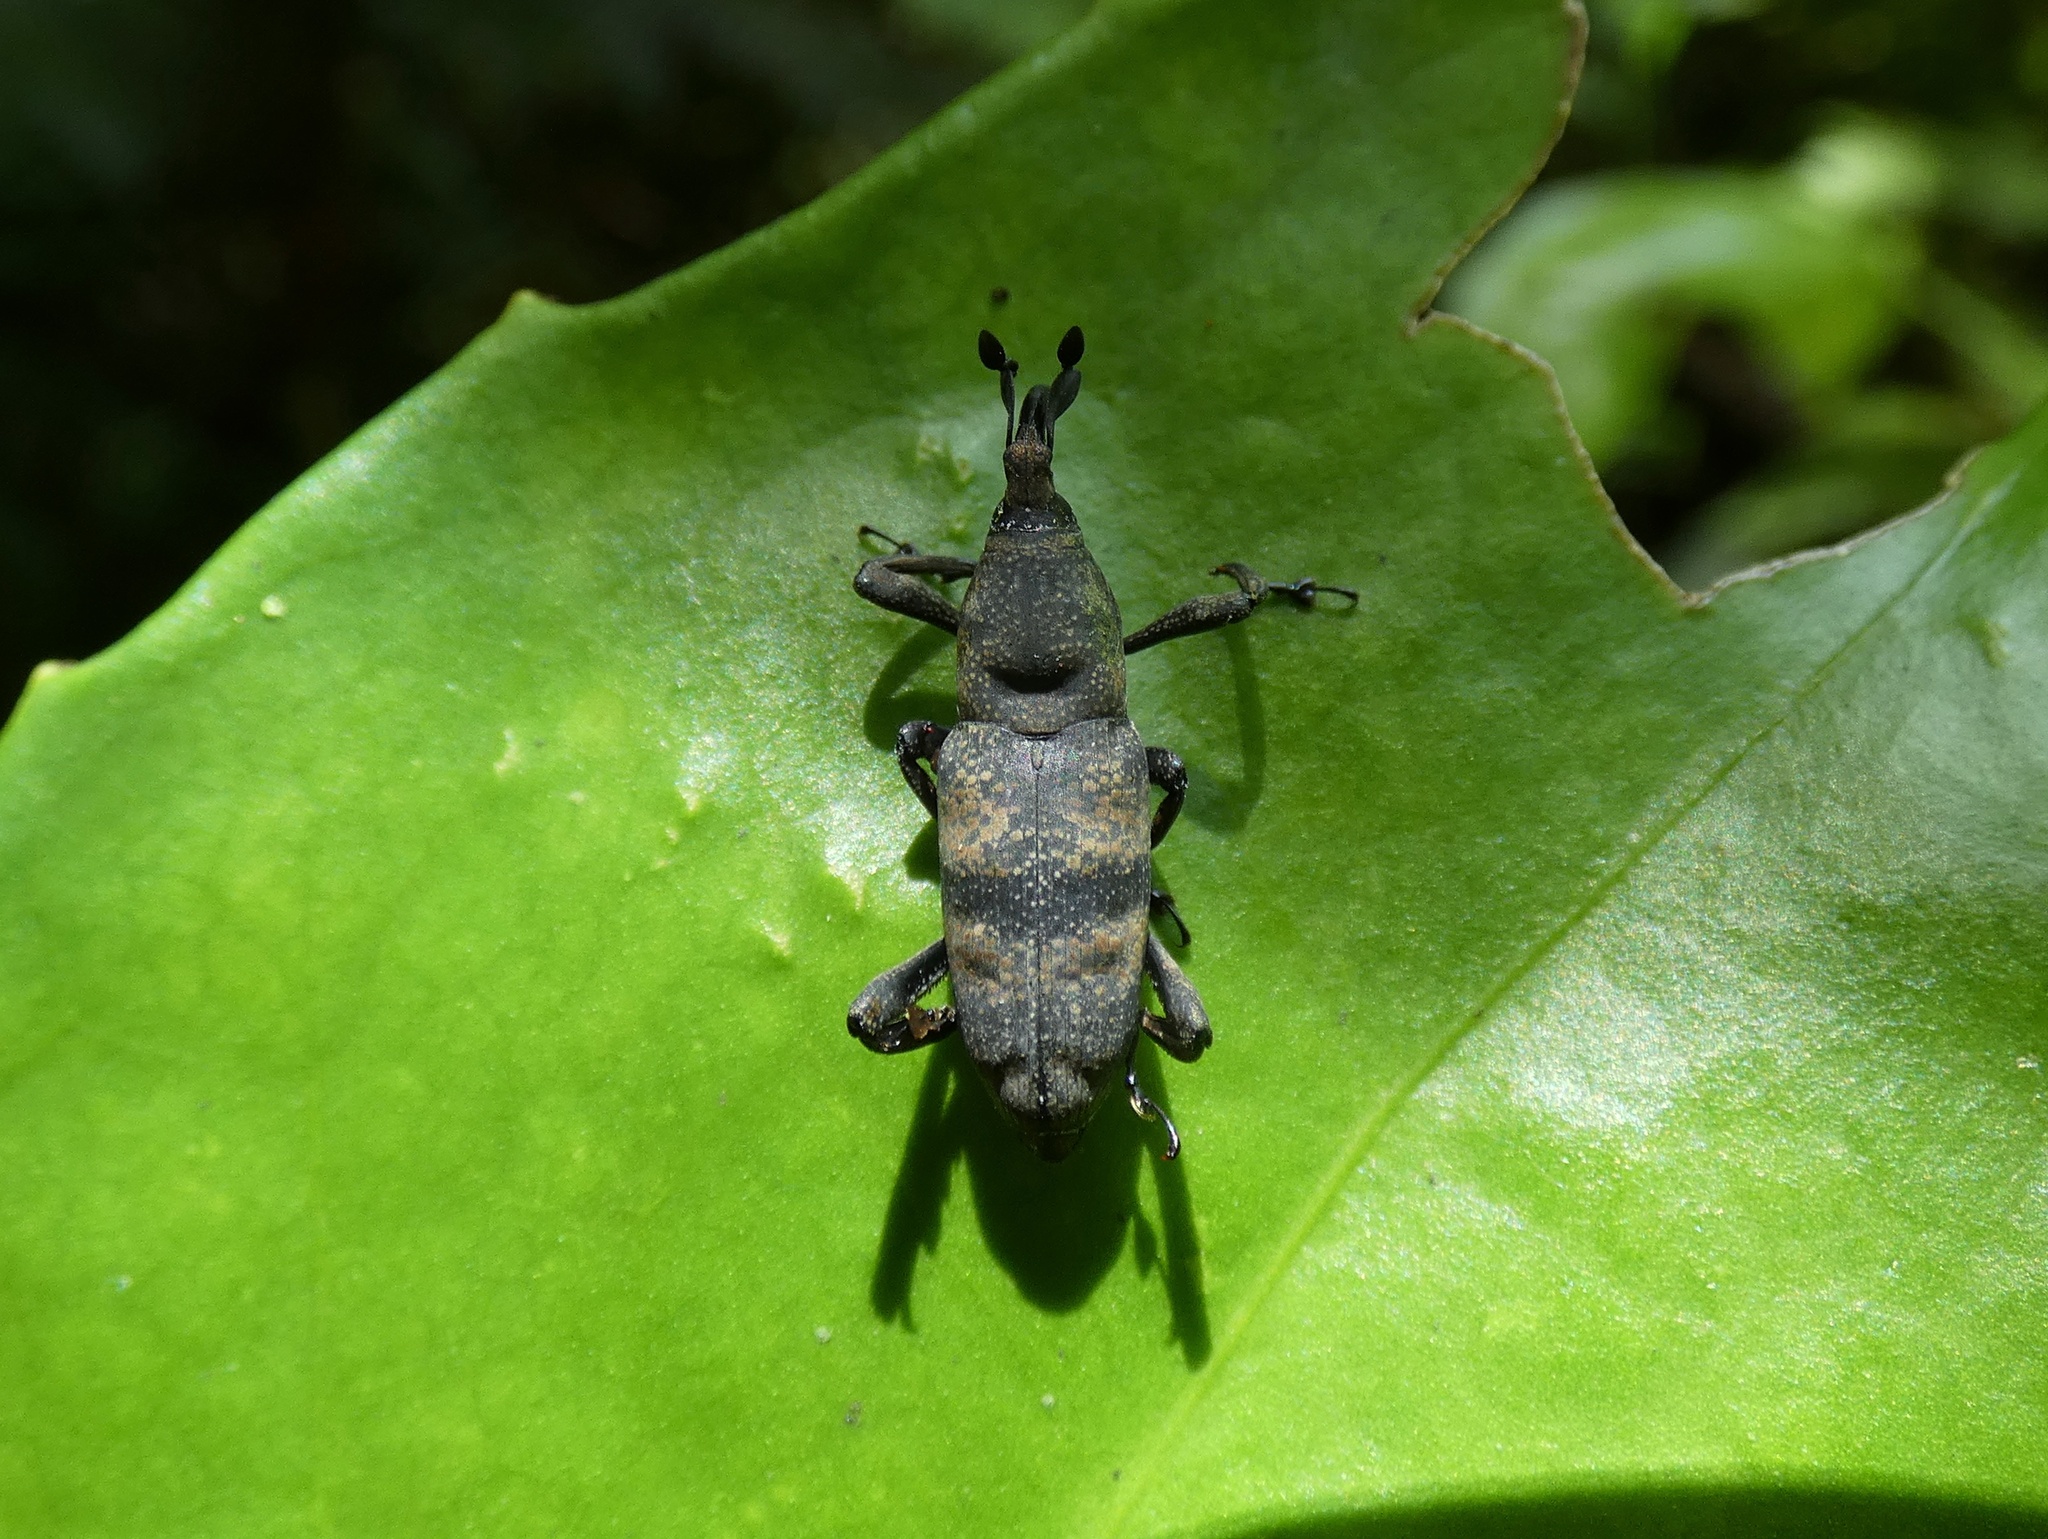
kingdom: Animalia
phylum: Arthropoda
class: Insecta
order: Coleoptera
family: Dryophthoridae
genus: Rhodobaenus
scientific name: Rhodobaenus
